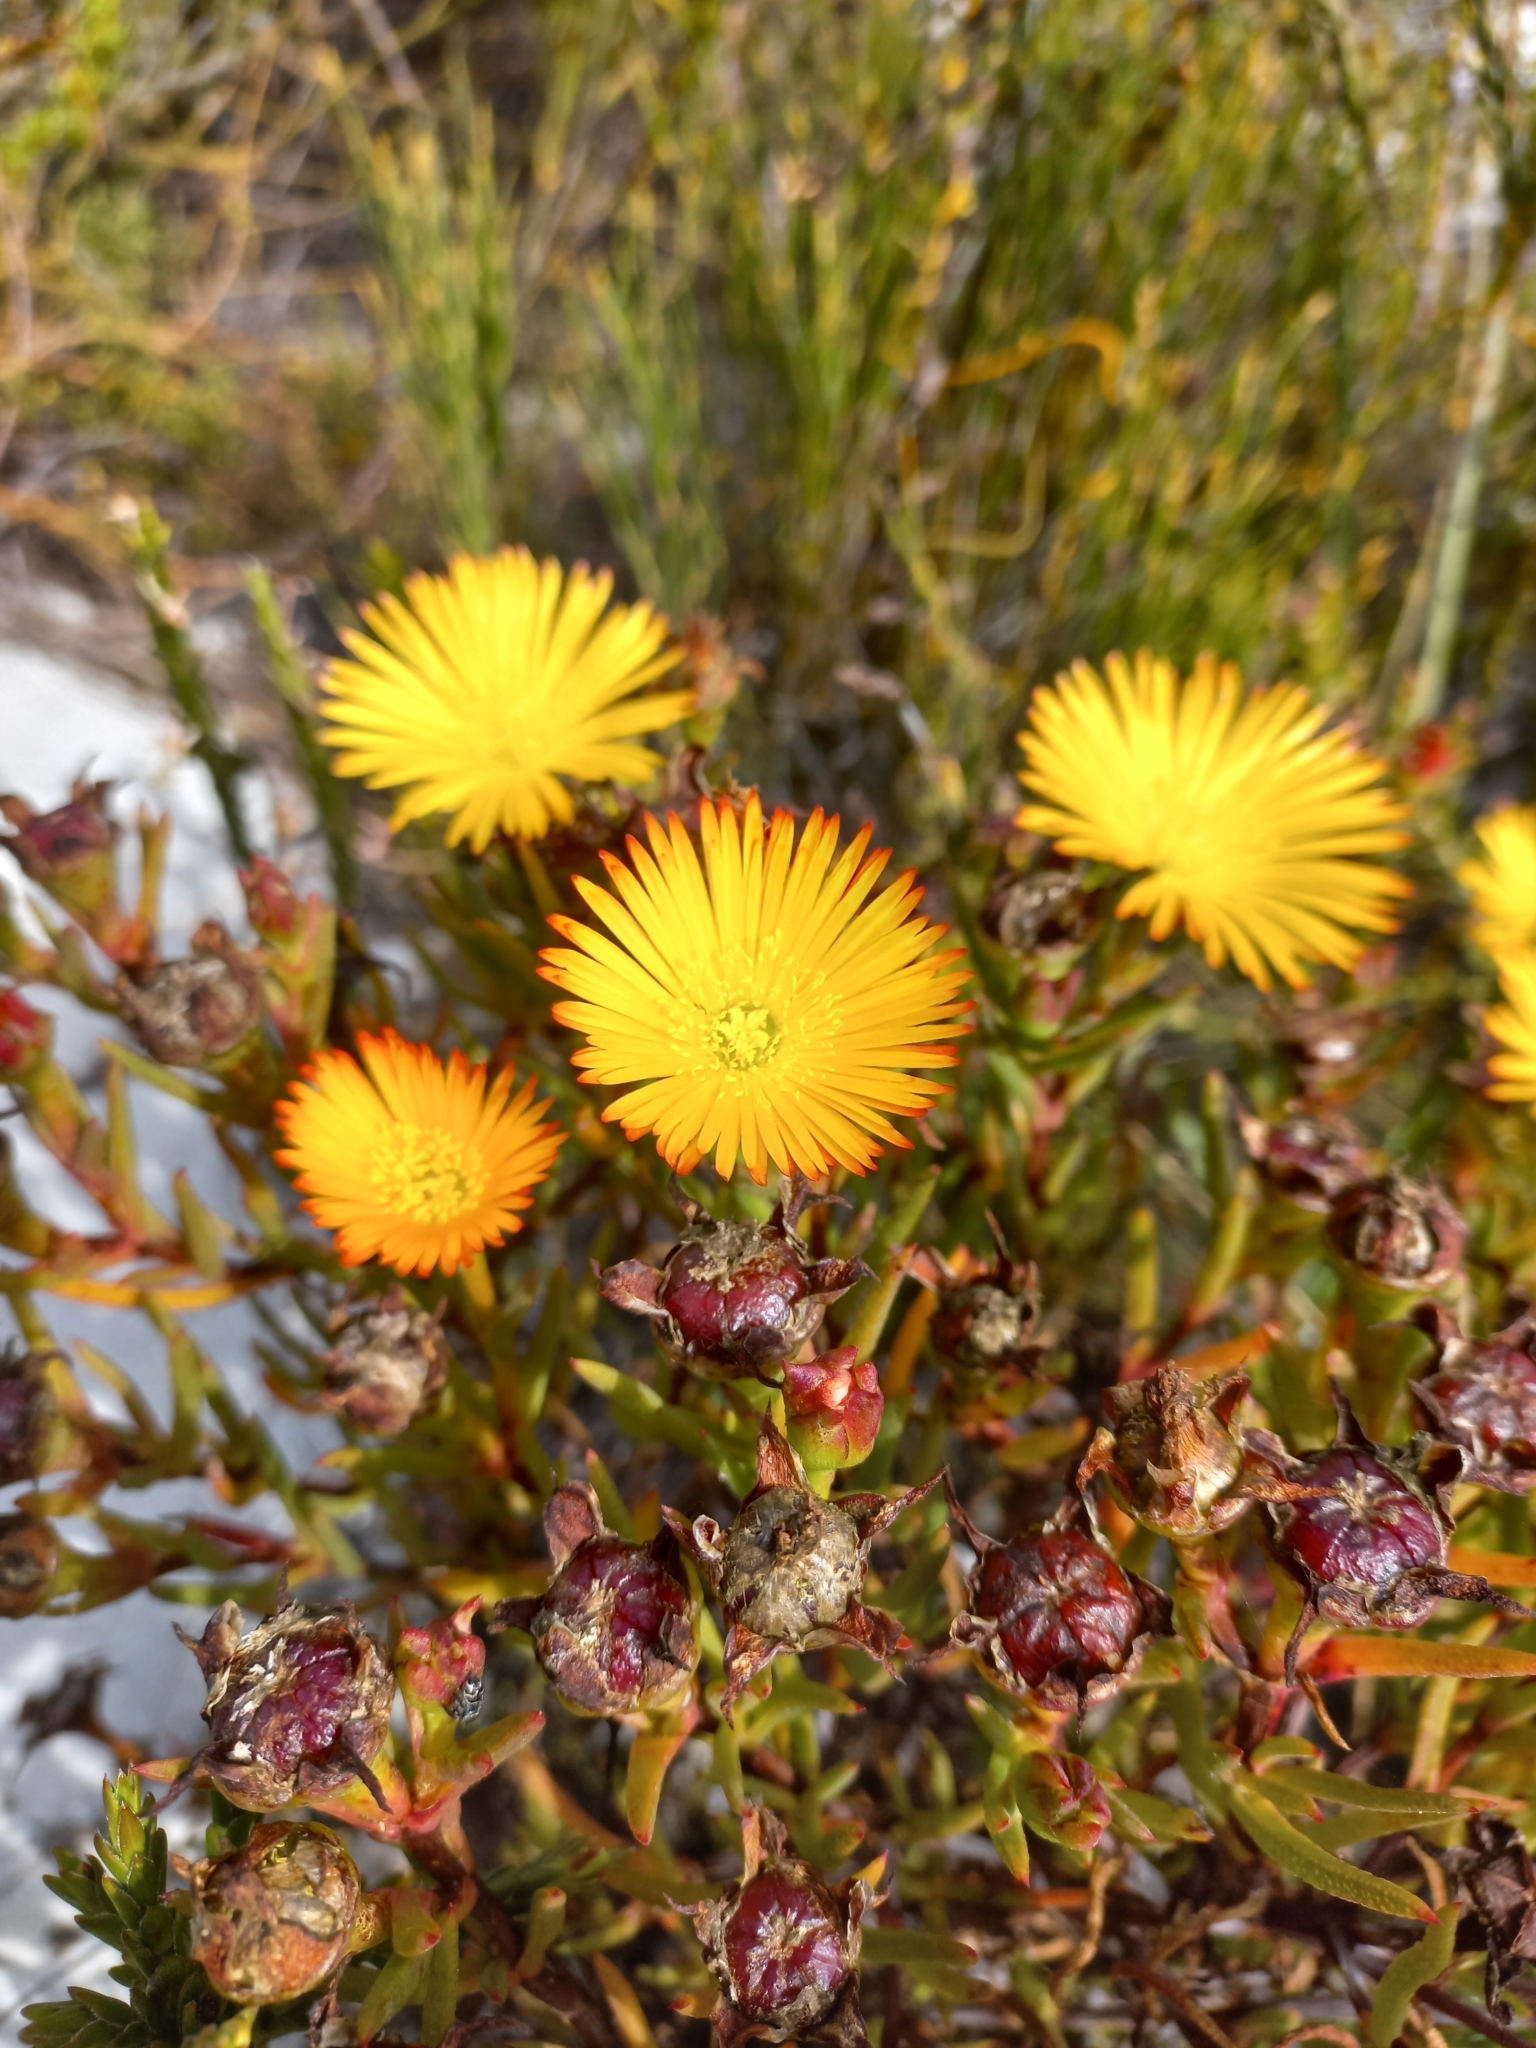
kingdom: Plantae
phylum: Tracheophyta
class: Magnoliopsida
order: Caryophyllales
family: Aizoaceae
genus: Lampranthus
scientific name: Lampranthus bicolor
